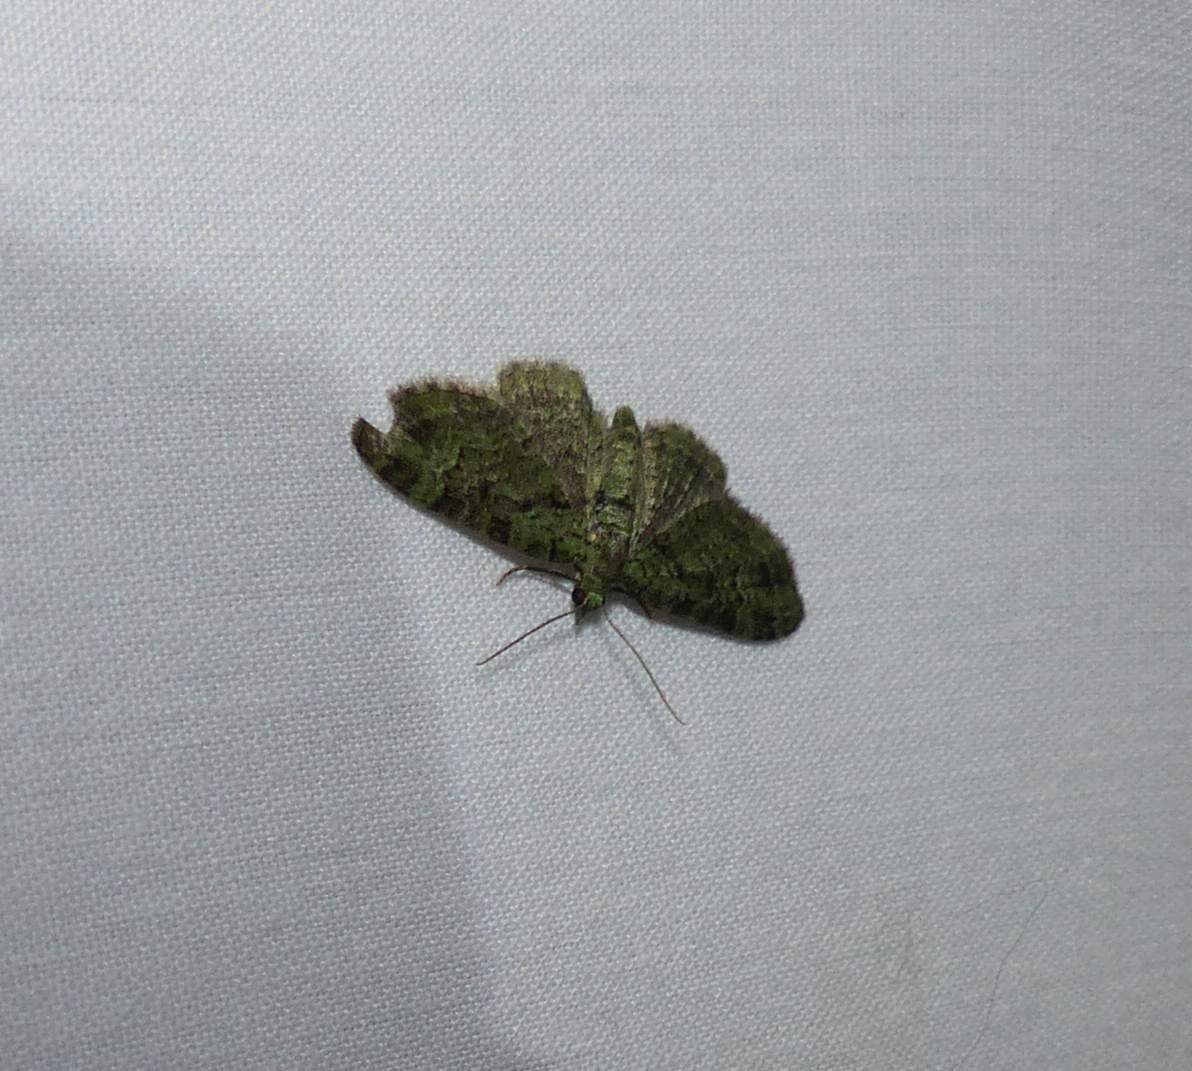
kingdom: Animalia
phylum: Arthropoda
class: Insecta
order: Lepidoptera
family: Geometridae
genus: Pasiphila
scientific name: Pasiphila rectangulata
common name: Green pug
